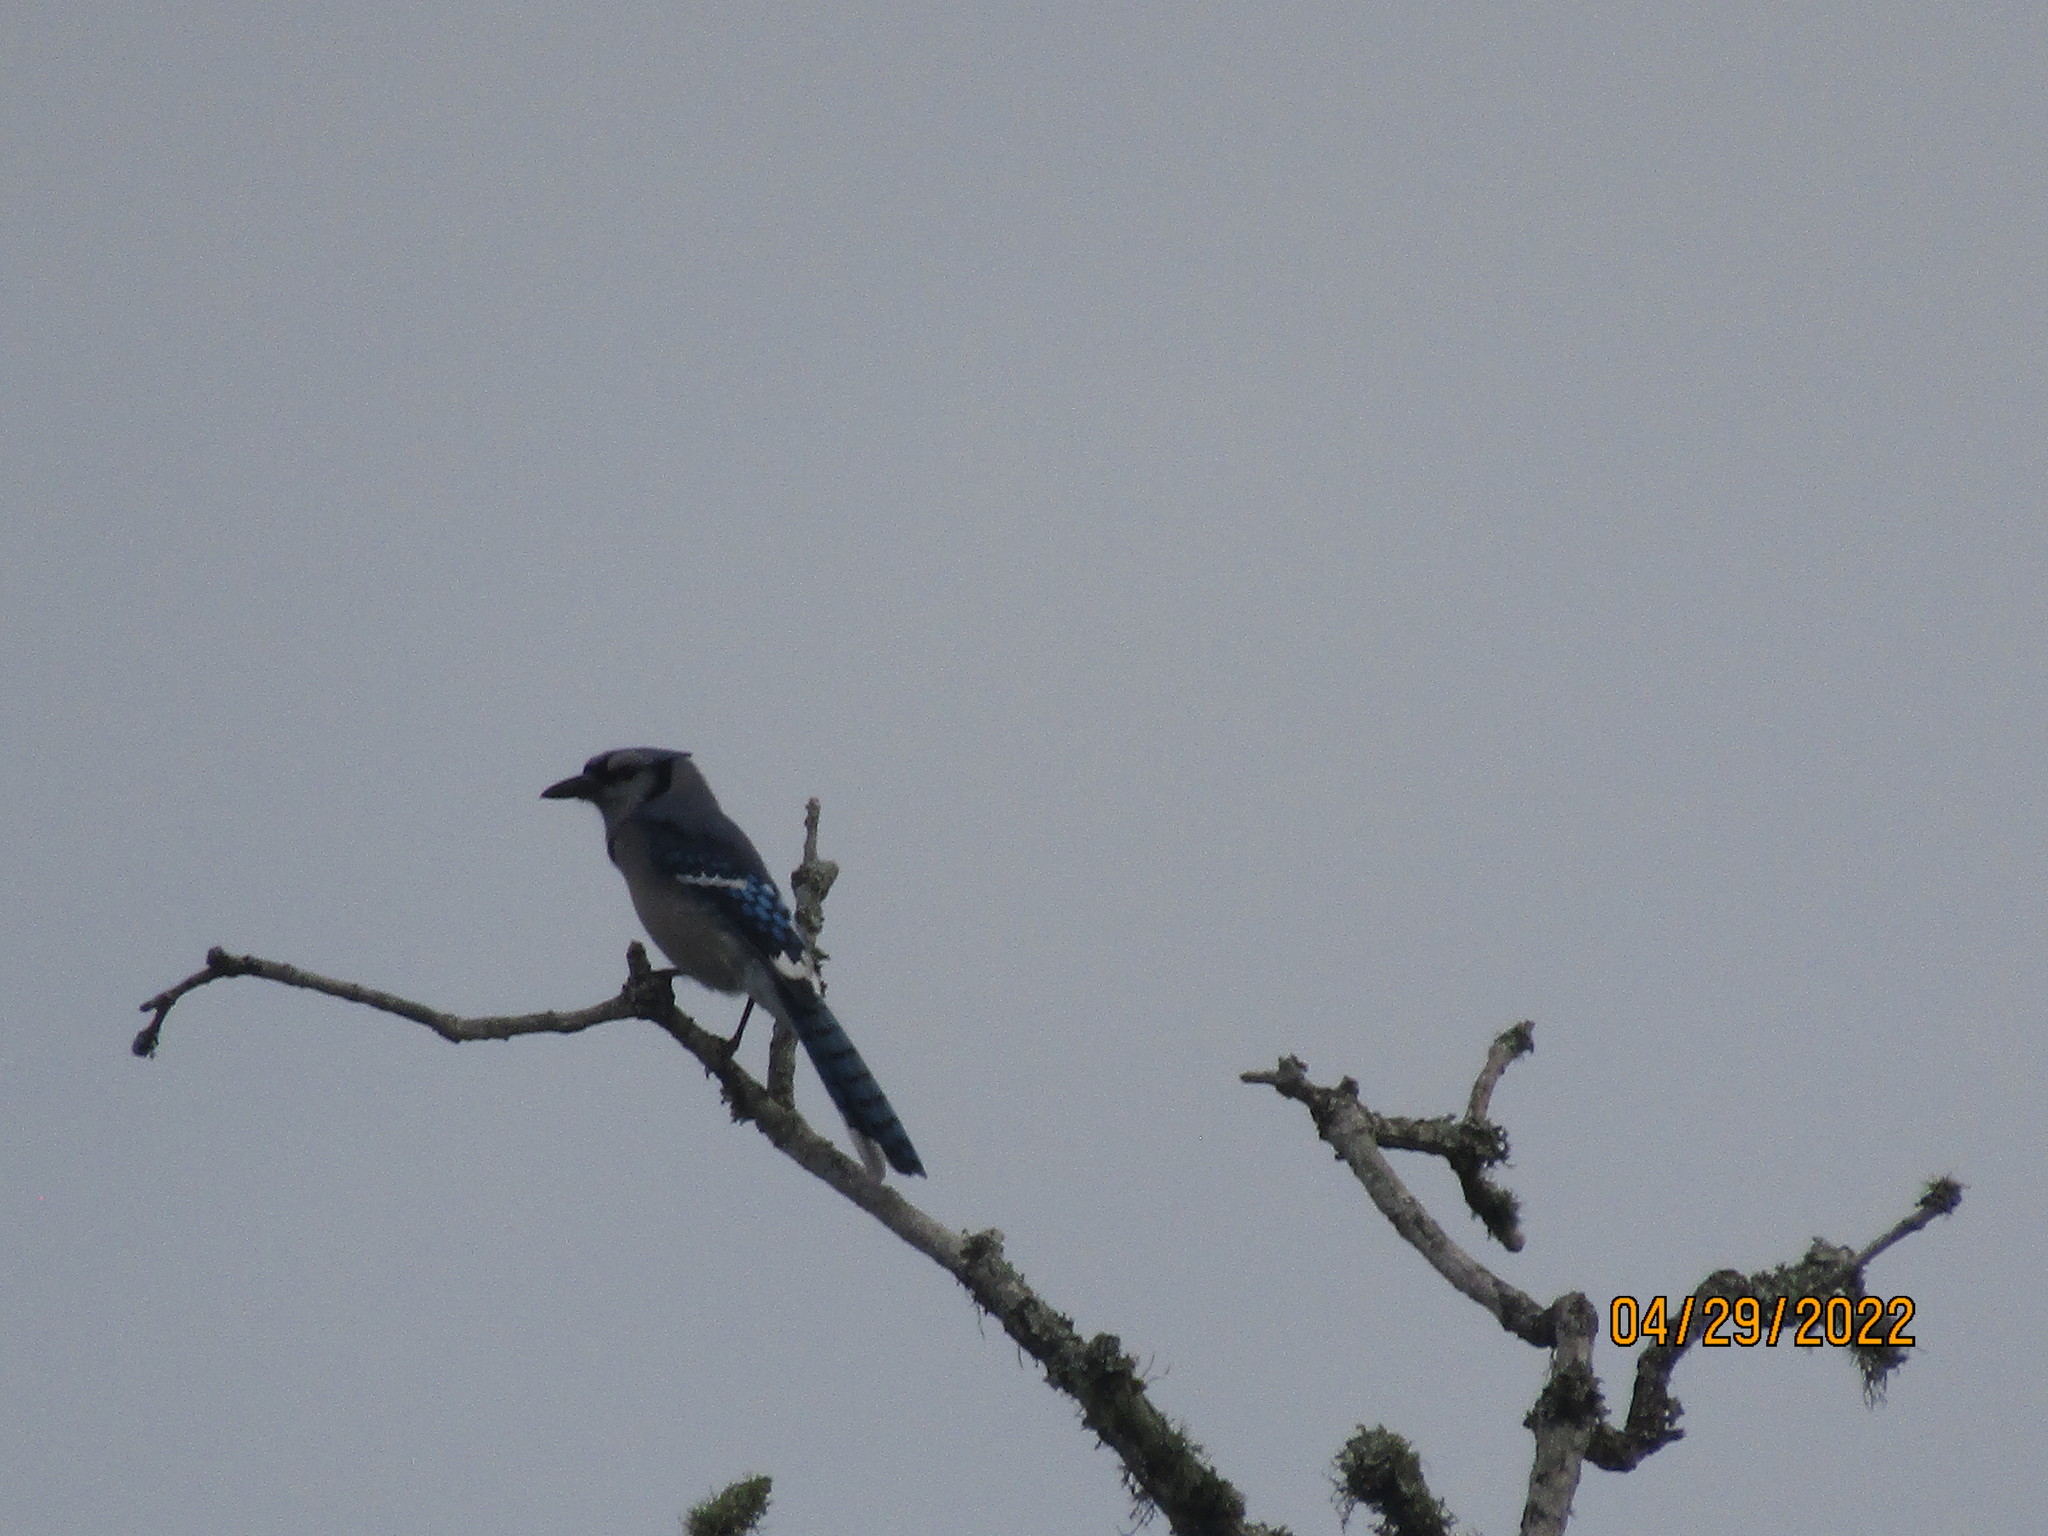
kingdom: Animalia
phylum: Chordata
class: Aves
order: Passeriformes
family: Corvidae
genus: Cyanocitta
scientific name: Cyanocitta cristata
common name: Blue jay
